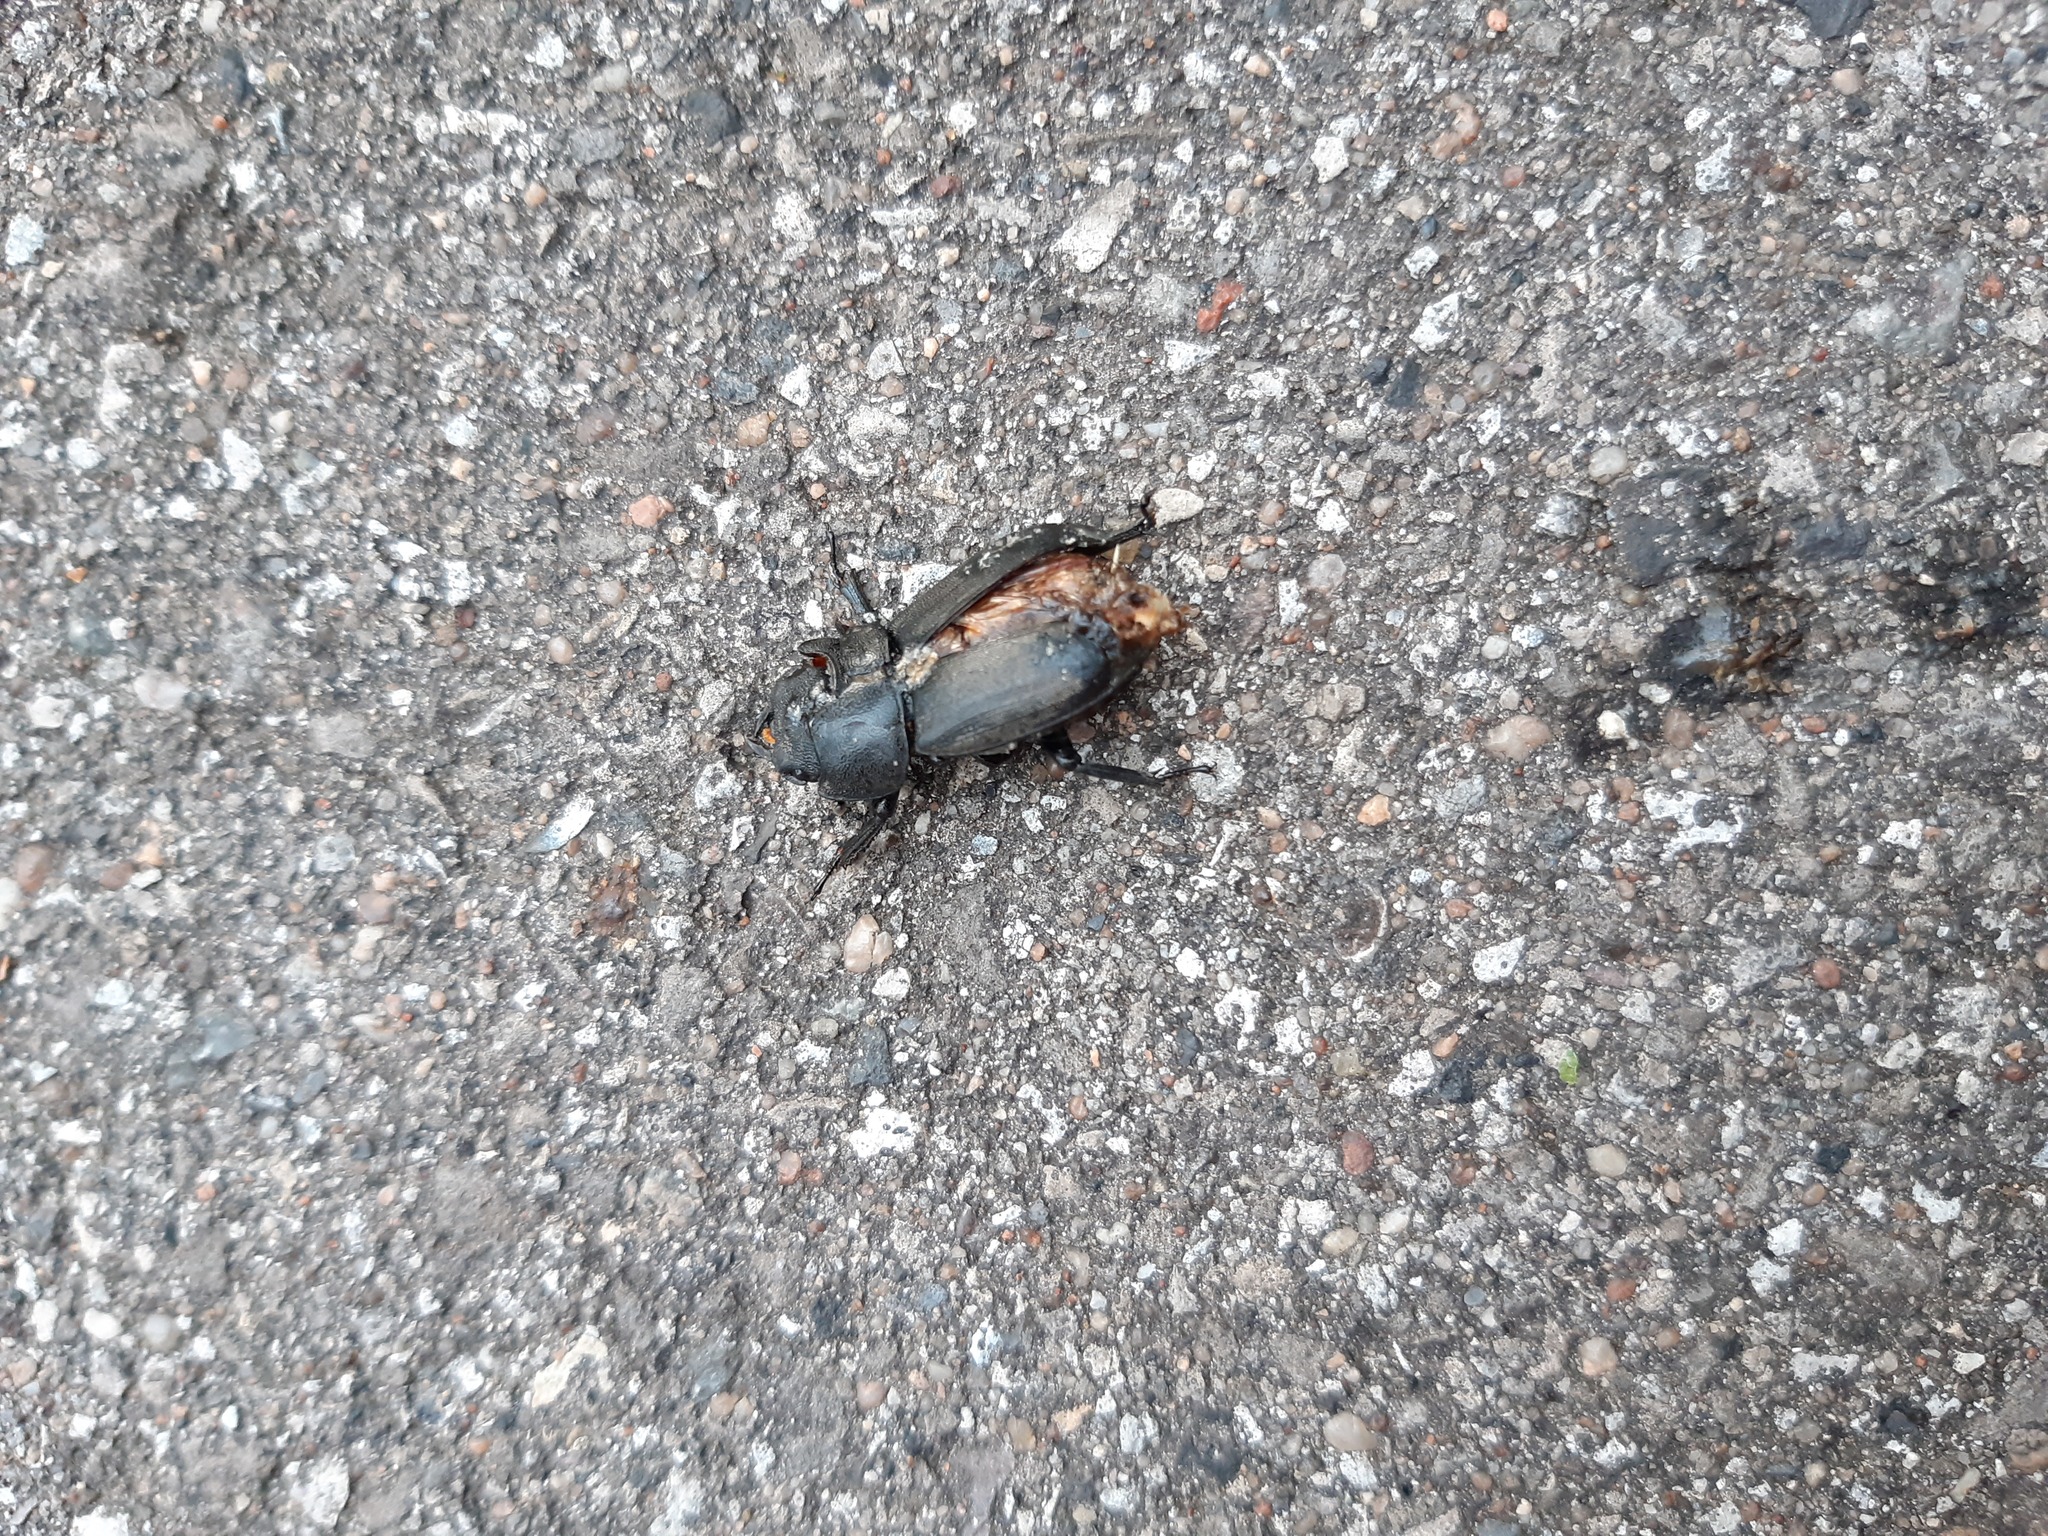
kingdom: Animalia
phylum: Arthropoda
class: Insecta
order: Coleoptera
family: Lucanidae
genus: Dorcus
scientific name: Dorcus parallelipipedus
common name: Lesser stag beetle
